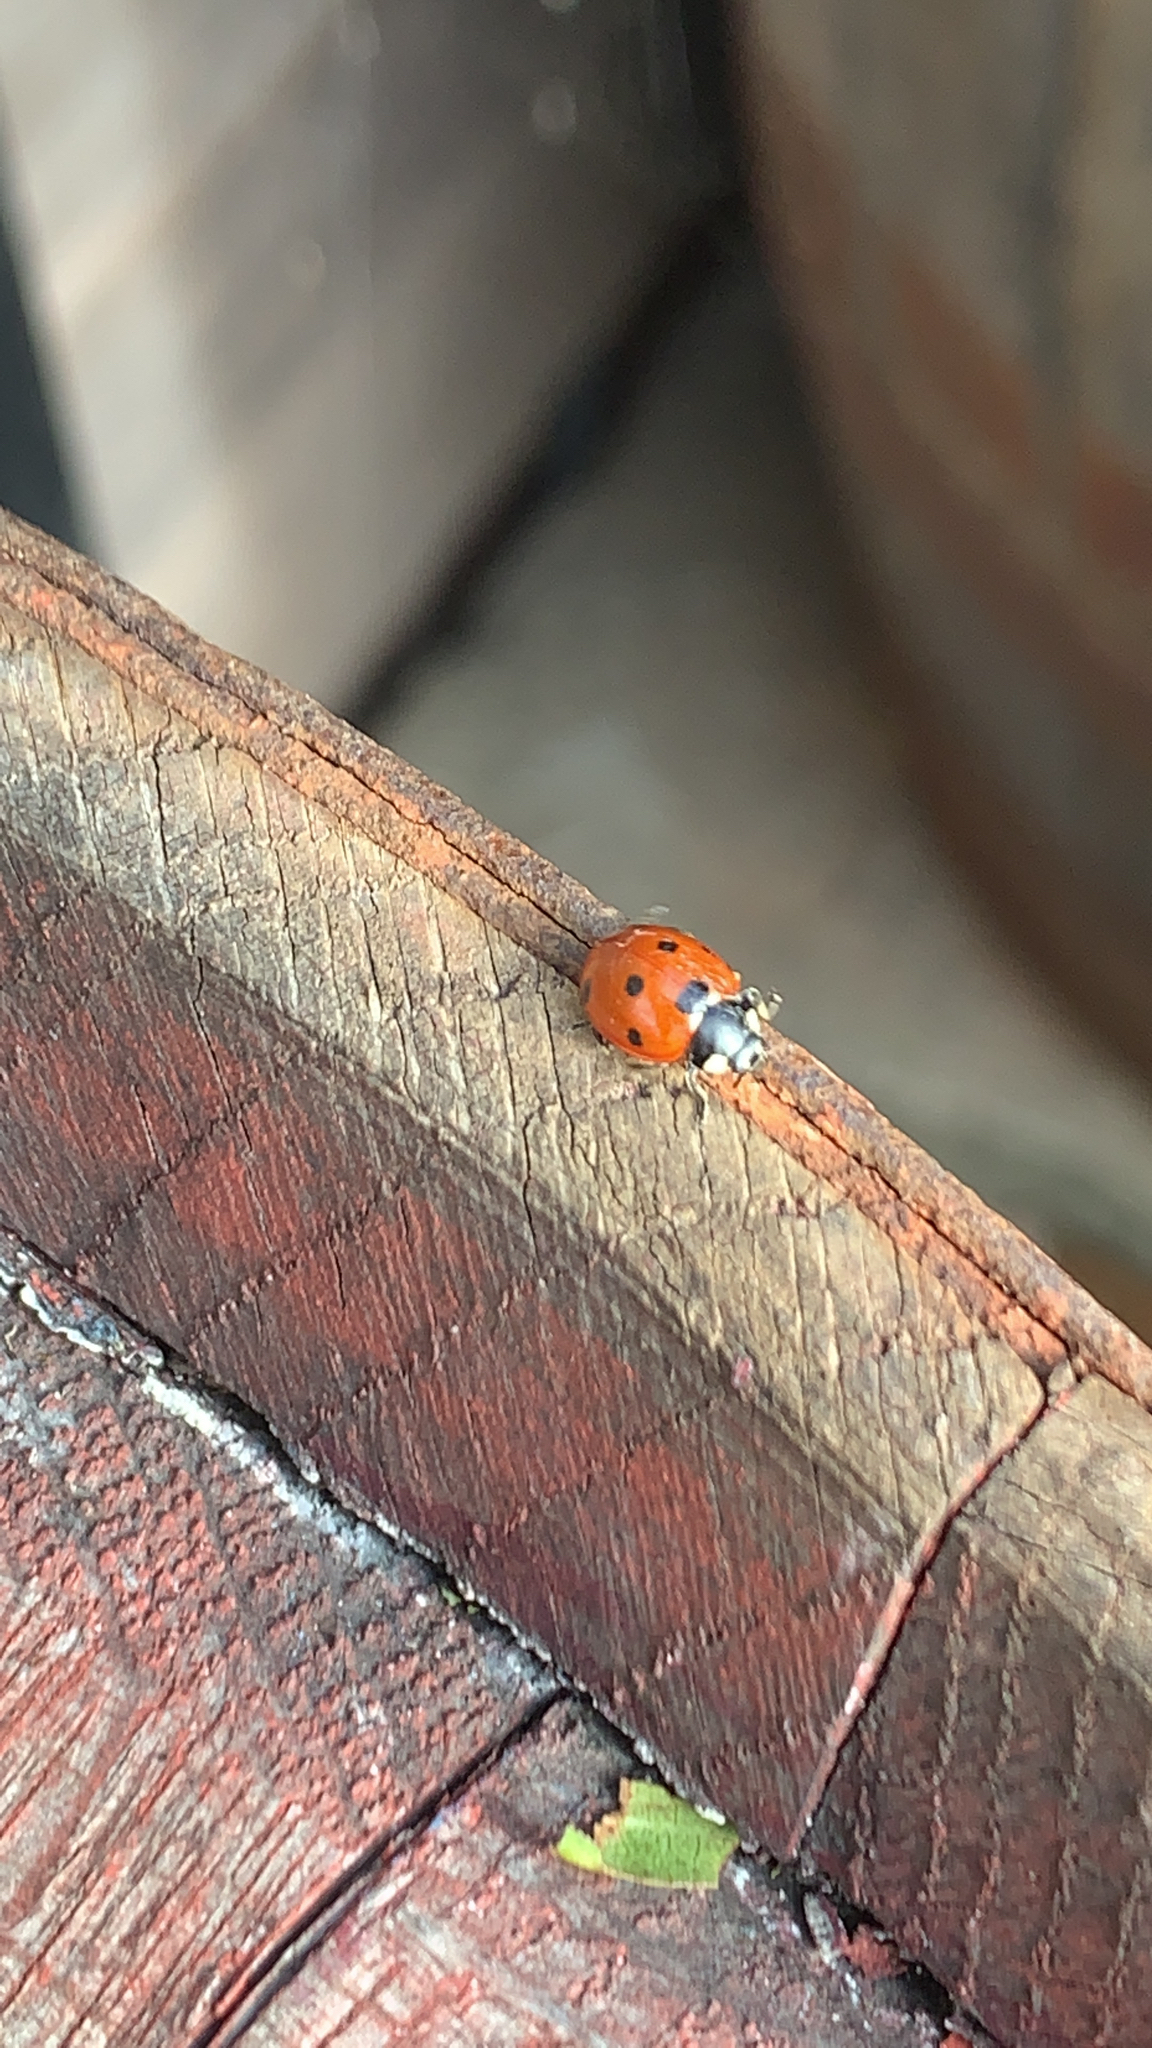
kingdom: Animalia
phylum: Arthropoda
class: Insecta
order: Coleoptera
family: Coccinellidae
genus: Coccinella
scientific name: Coccinella septempunctata
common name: Sevenspotted lady beetle
